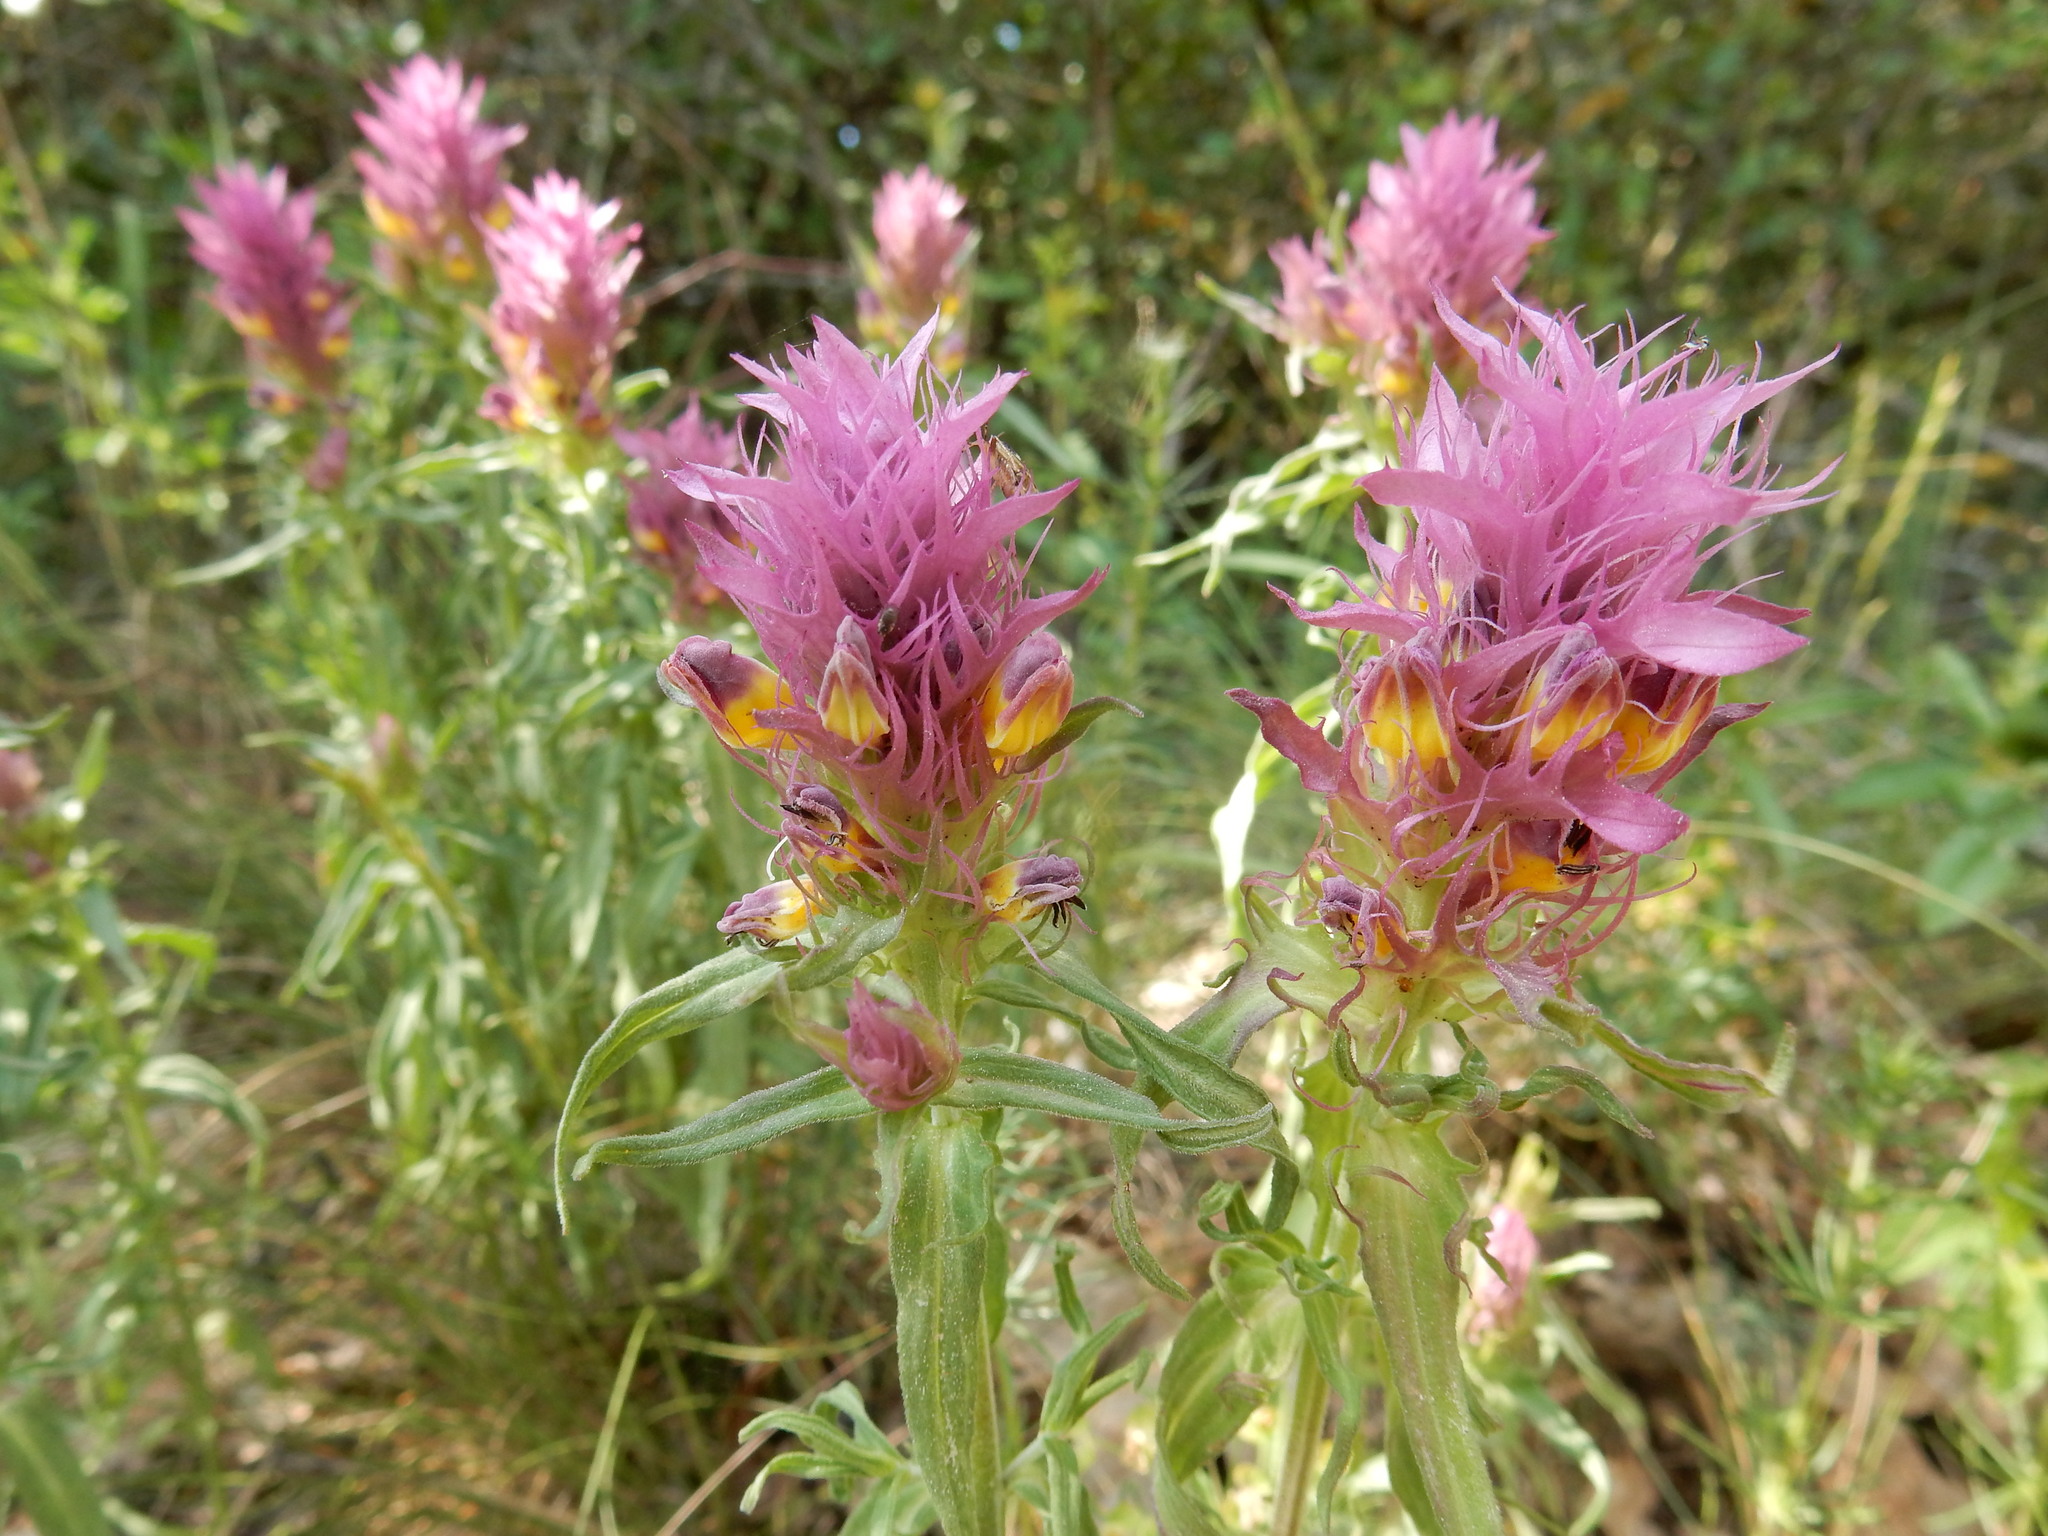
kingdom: Plantae
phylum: Tracheophyta
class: Magnoliopsida
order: Lamiales
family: Orobanchaceae
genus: Melampyrum
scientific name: Melampyrum arvense
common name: Field cow-wheat
